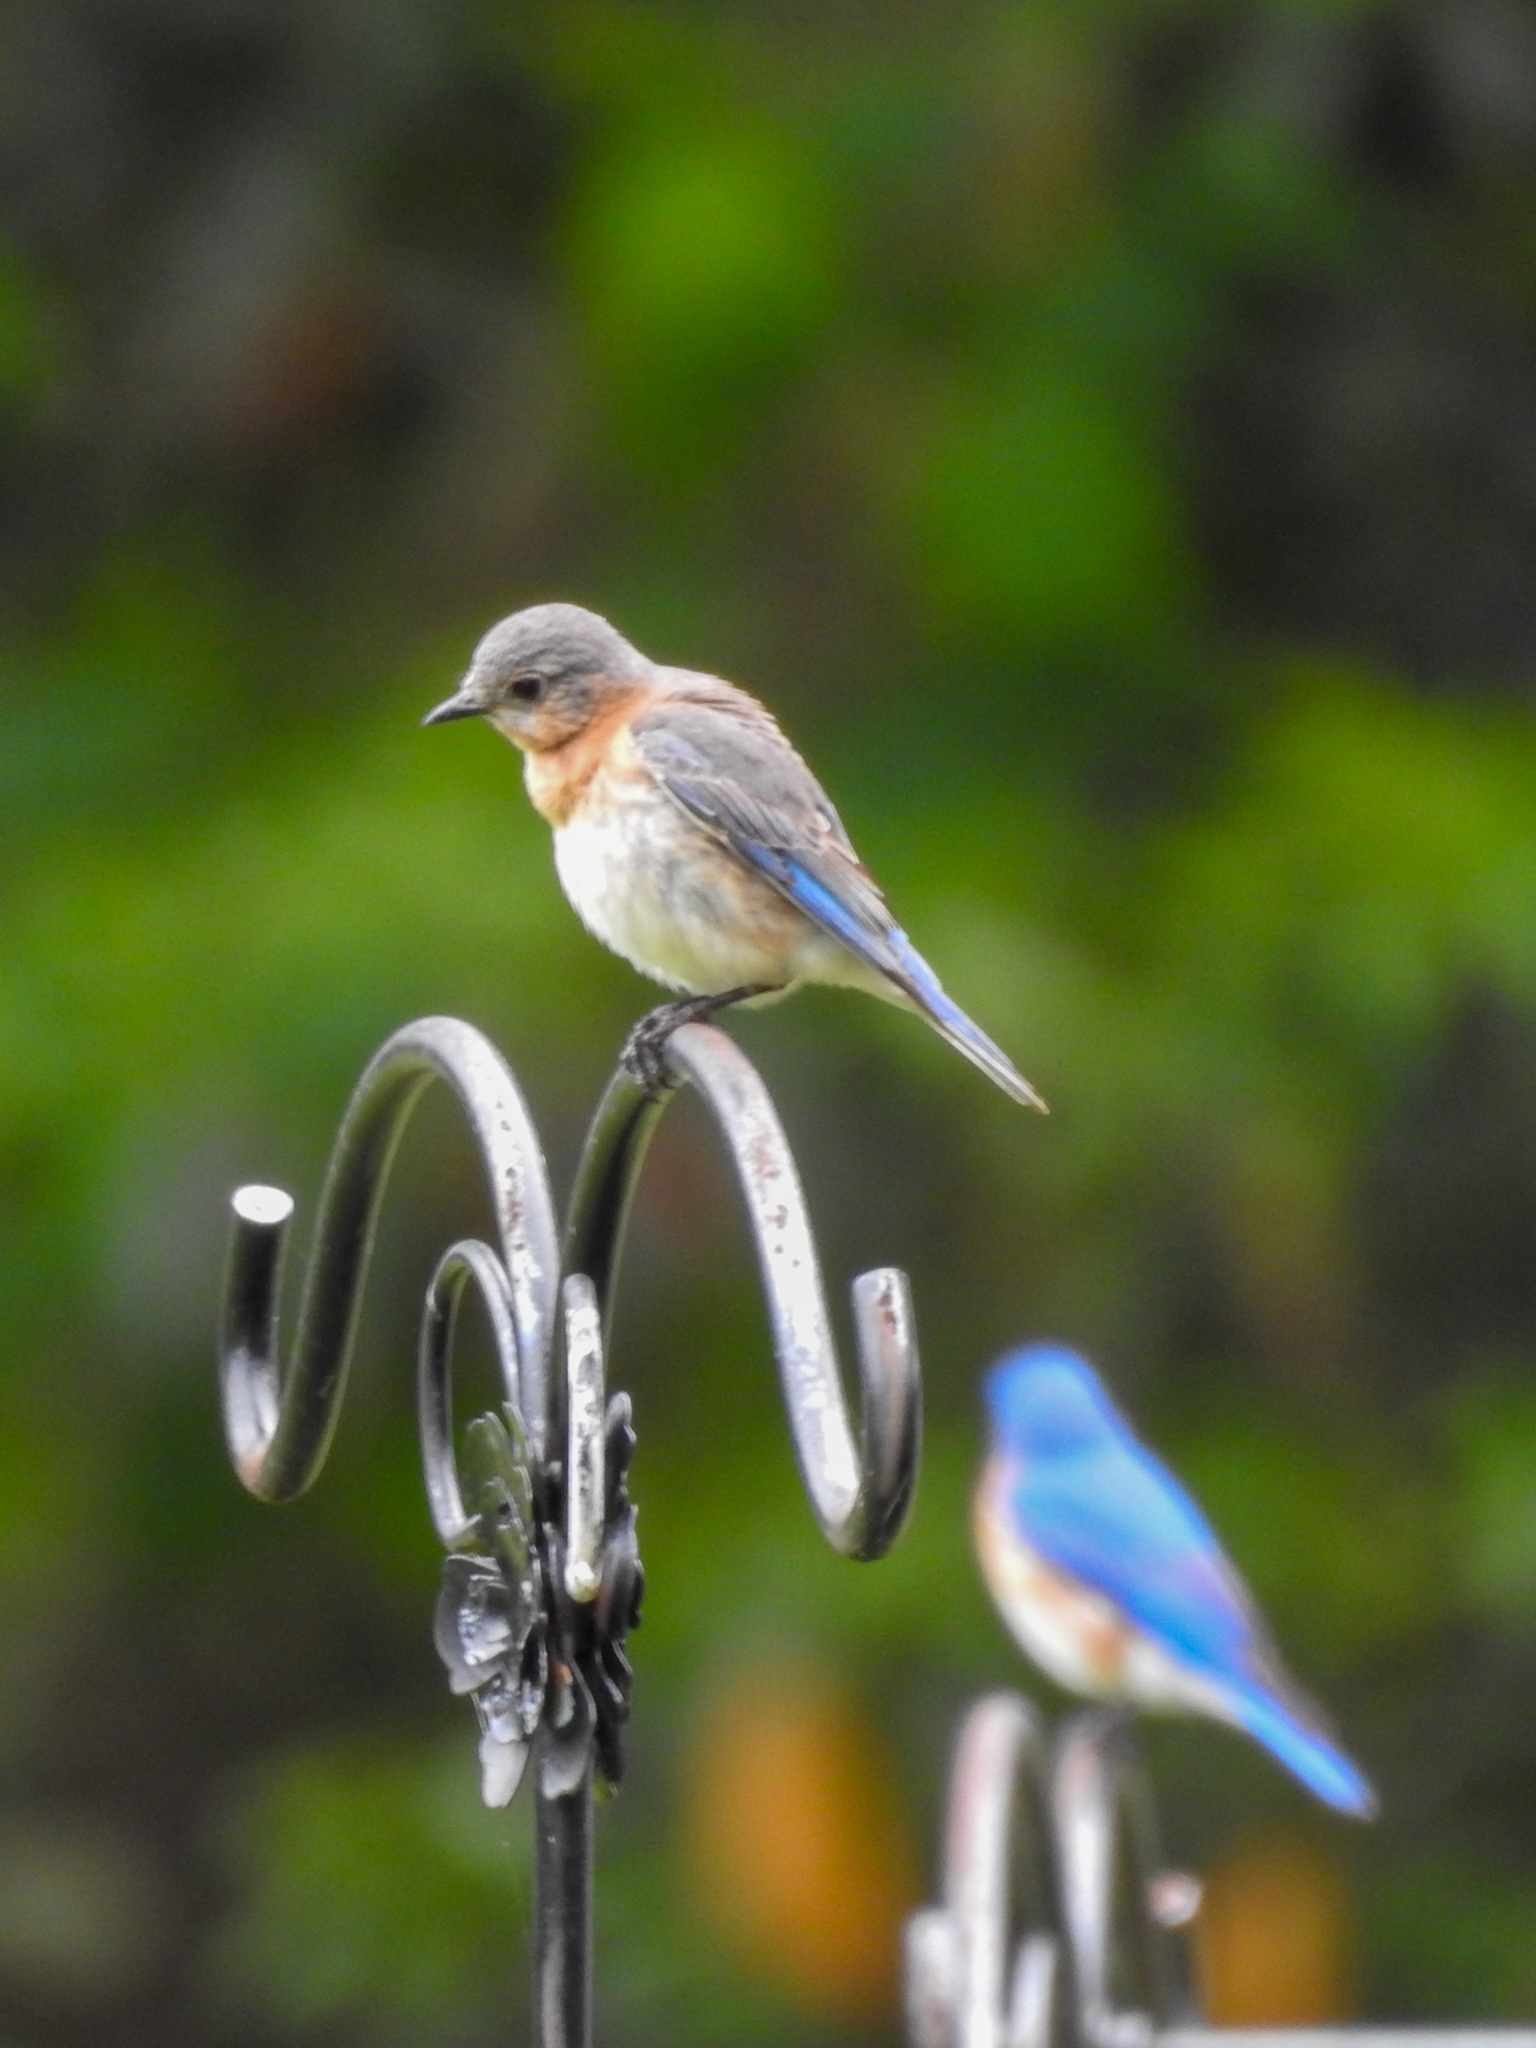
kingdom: Animalia
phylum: Chordata
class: Aves
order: Passeriformes
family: Turdidae
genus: Sialia
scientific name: Sialia sialis
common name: Eastern bluebird
